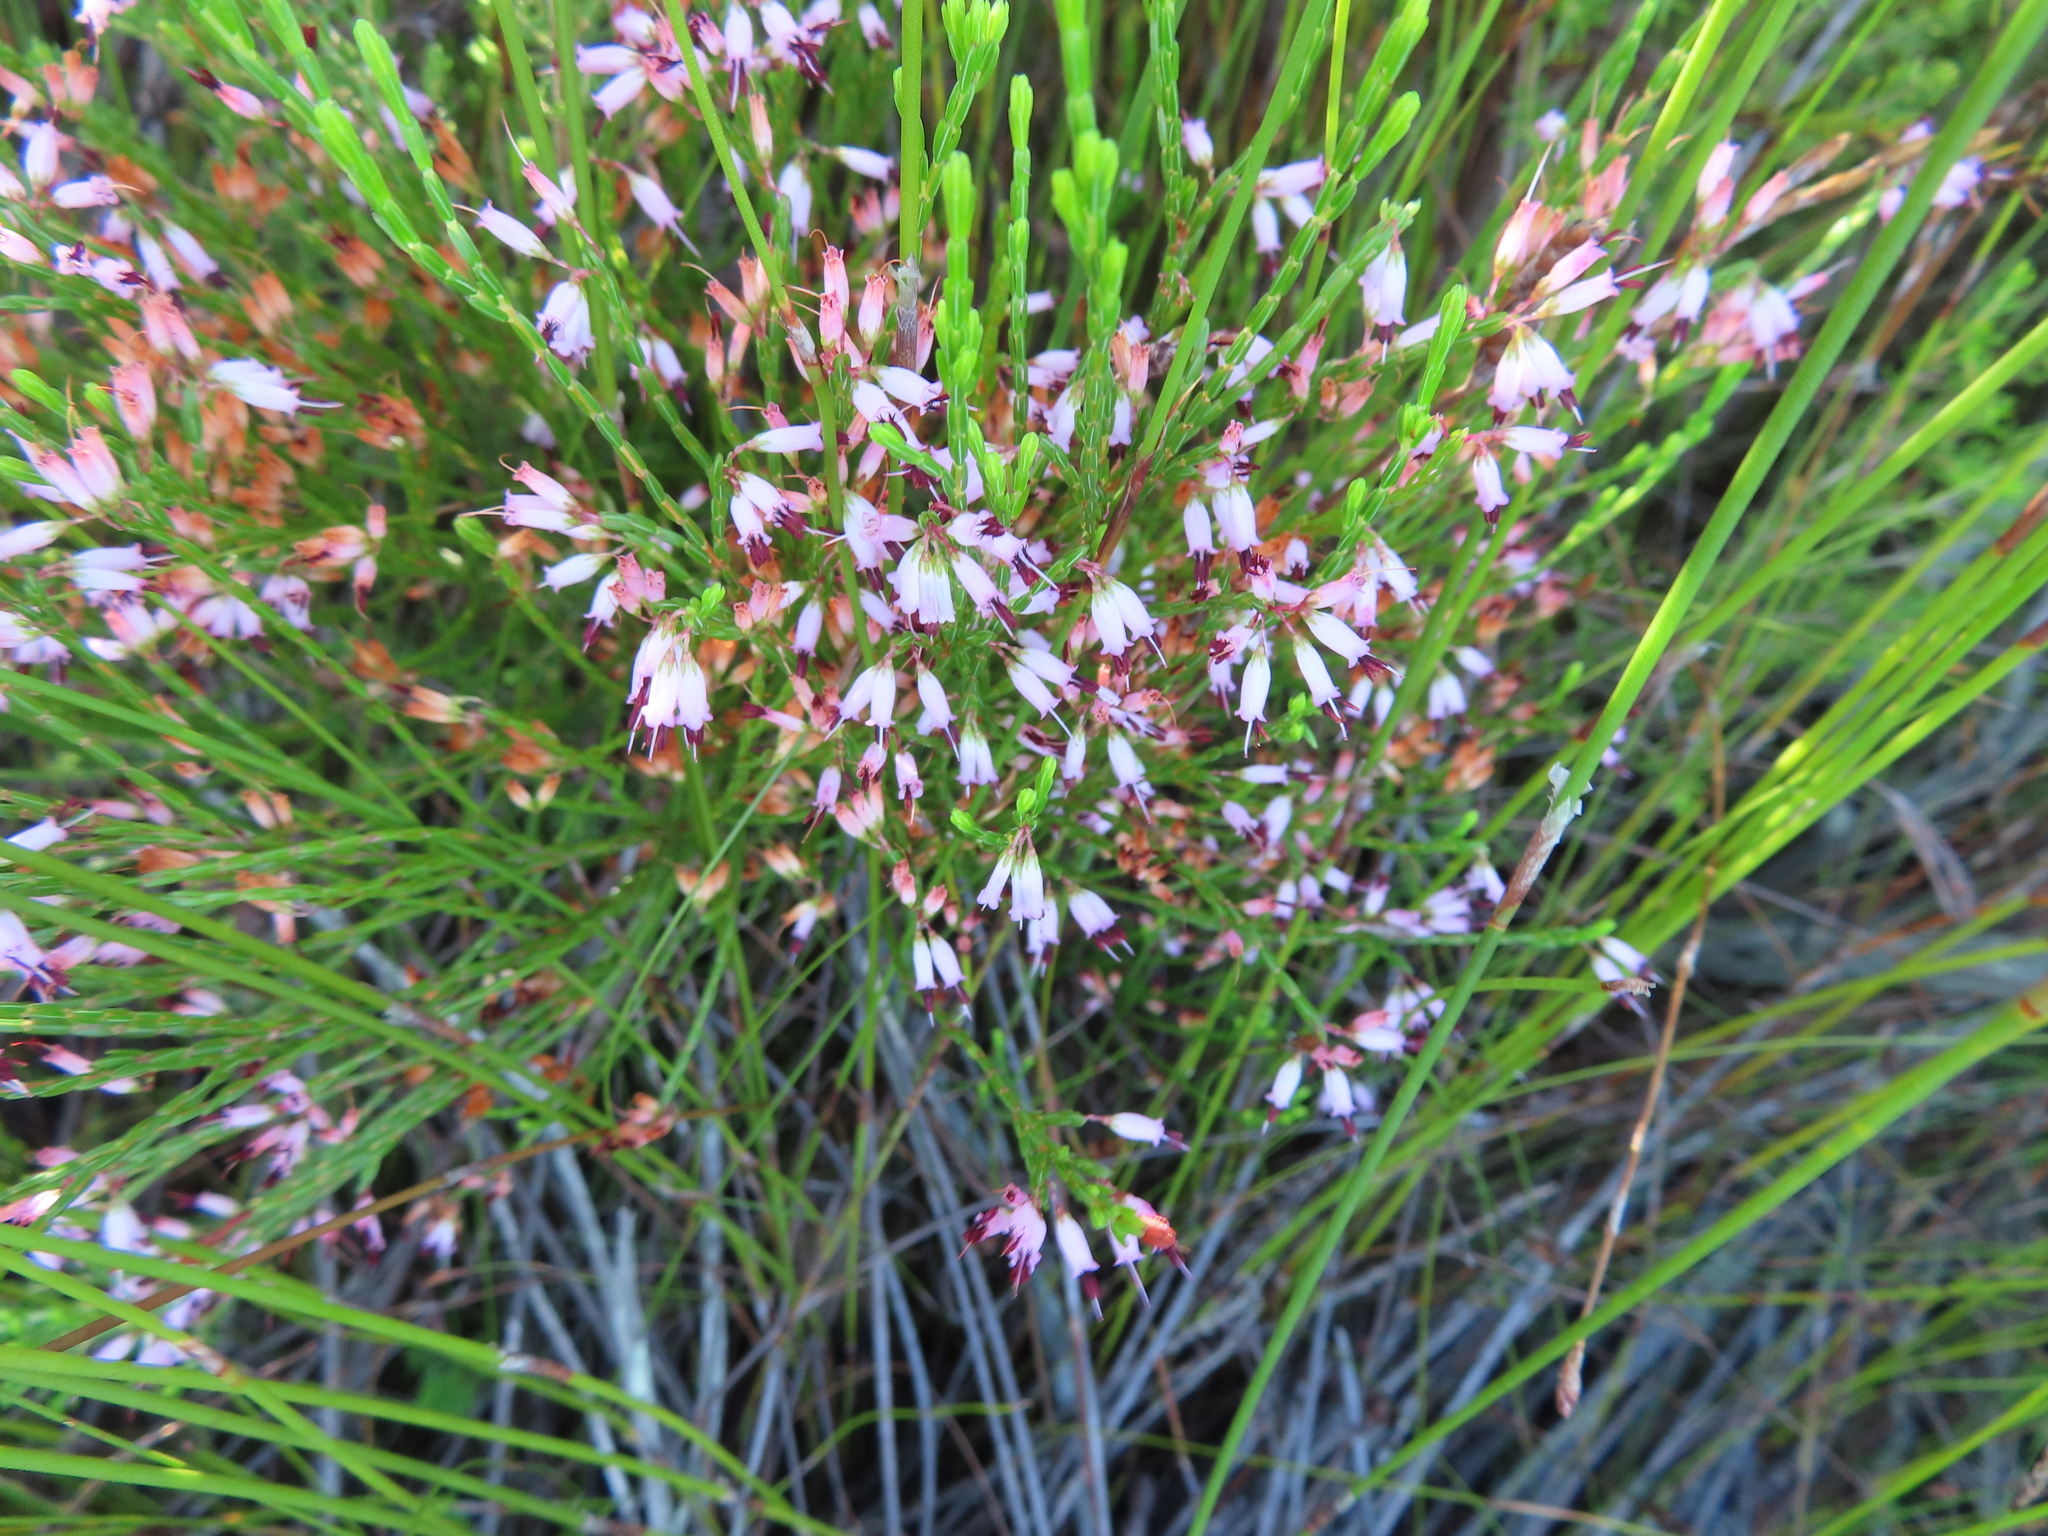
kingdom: Plantae
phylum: Tracheophyta
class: Magnoliopsida
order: Ericales
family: Ericaceae
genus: Erica
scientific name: Erica equisetifolia
